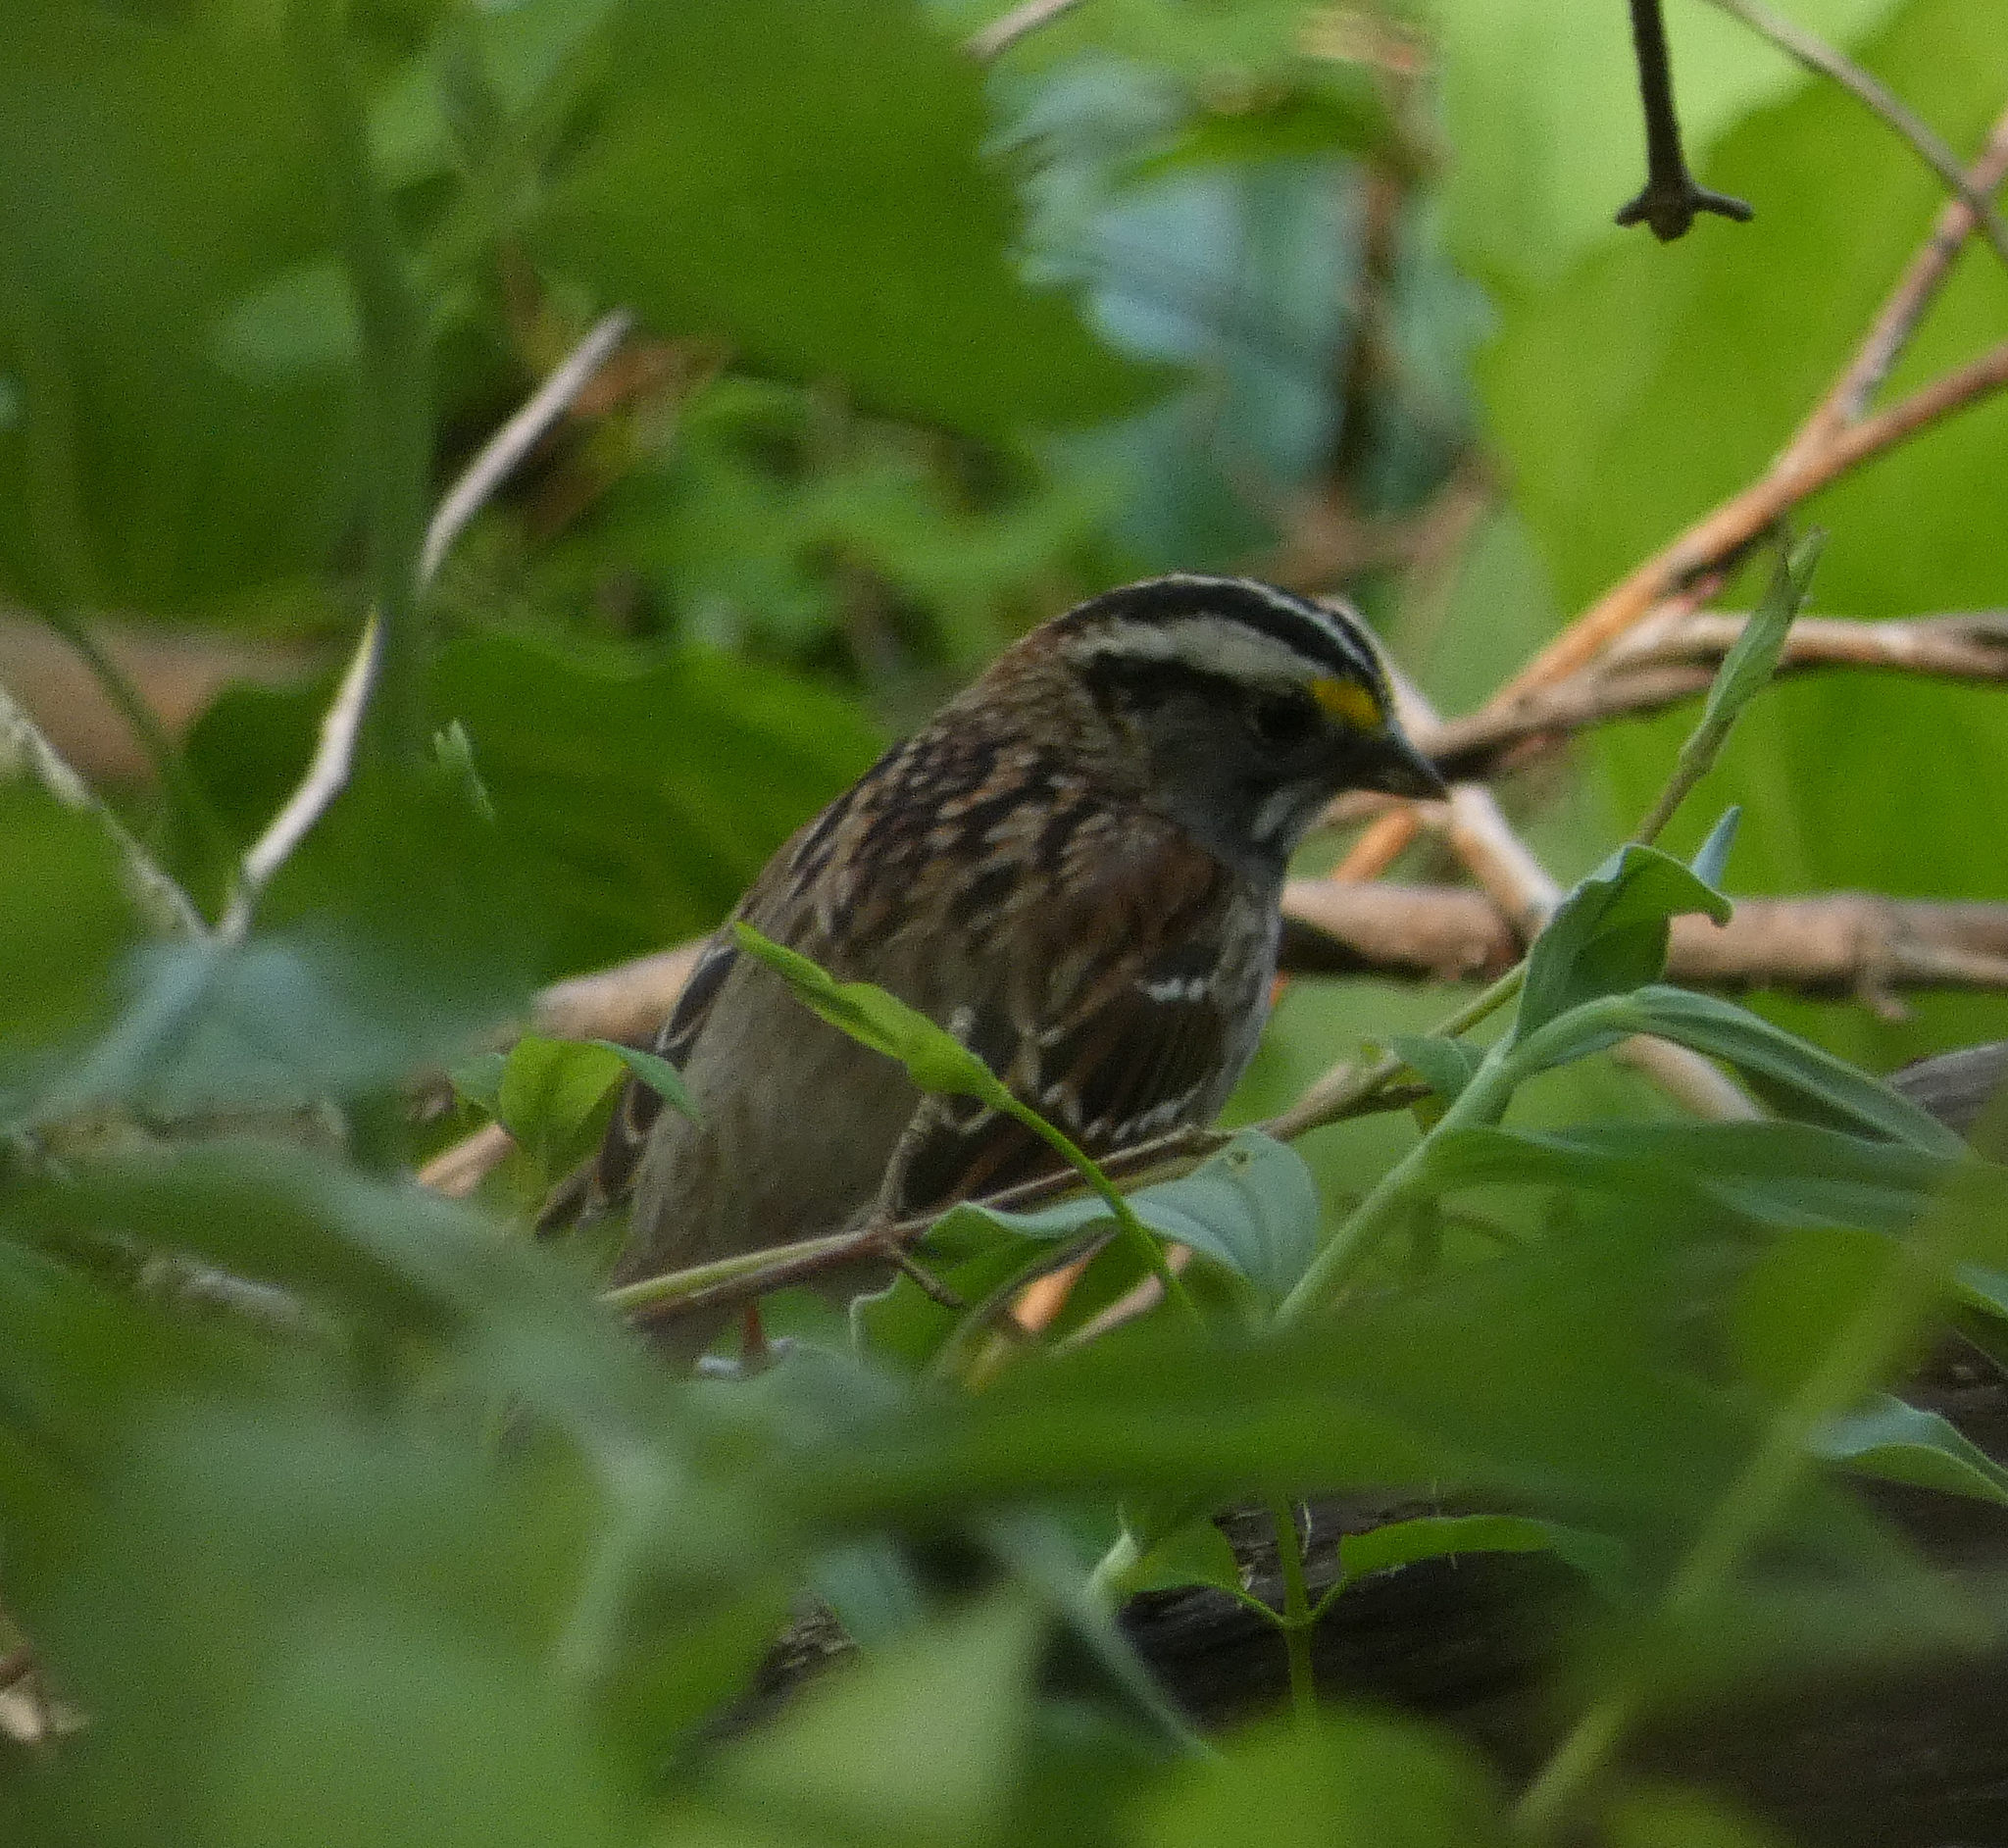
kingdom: Animalia
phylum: Chordata
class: Aves
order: Passeriformes
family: Passerellidae
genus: Zonotrichia
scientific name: Zonotrichia albicollis
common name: White-throated sparrow
